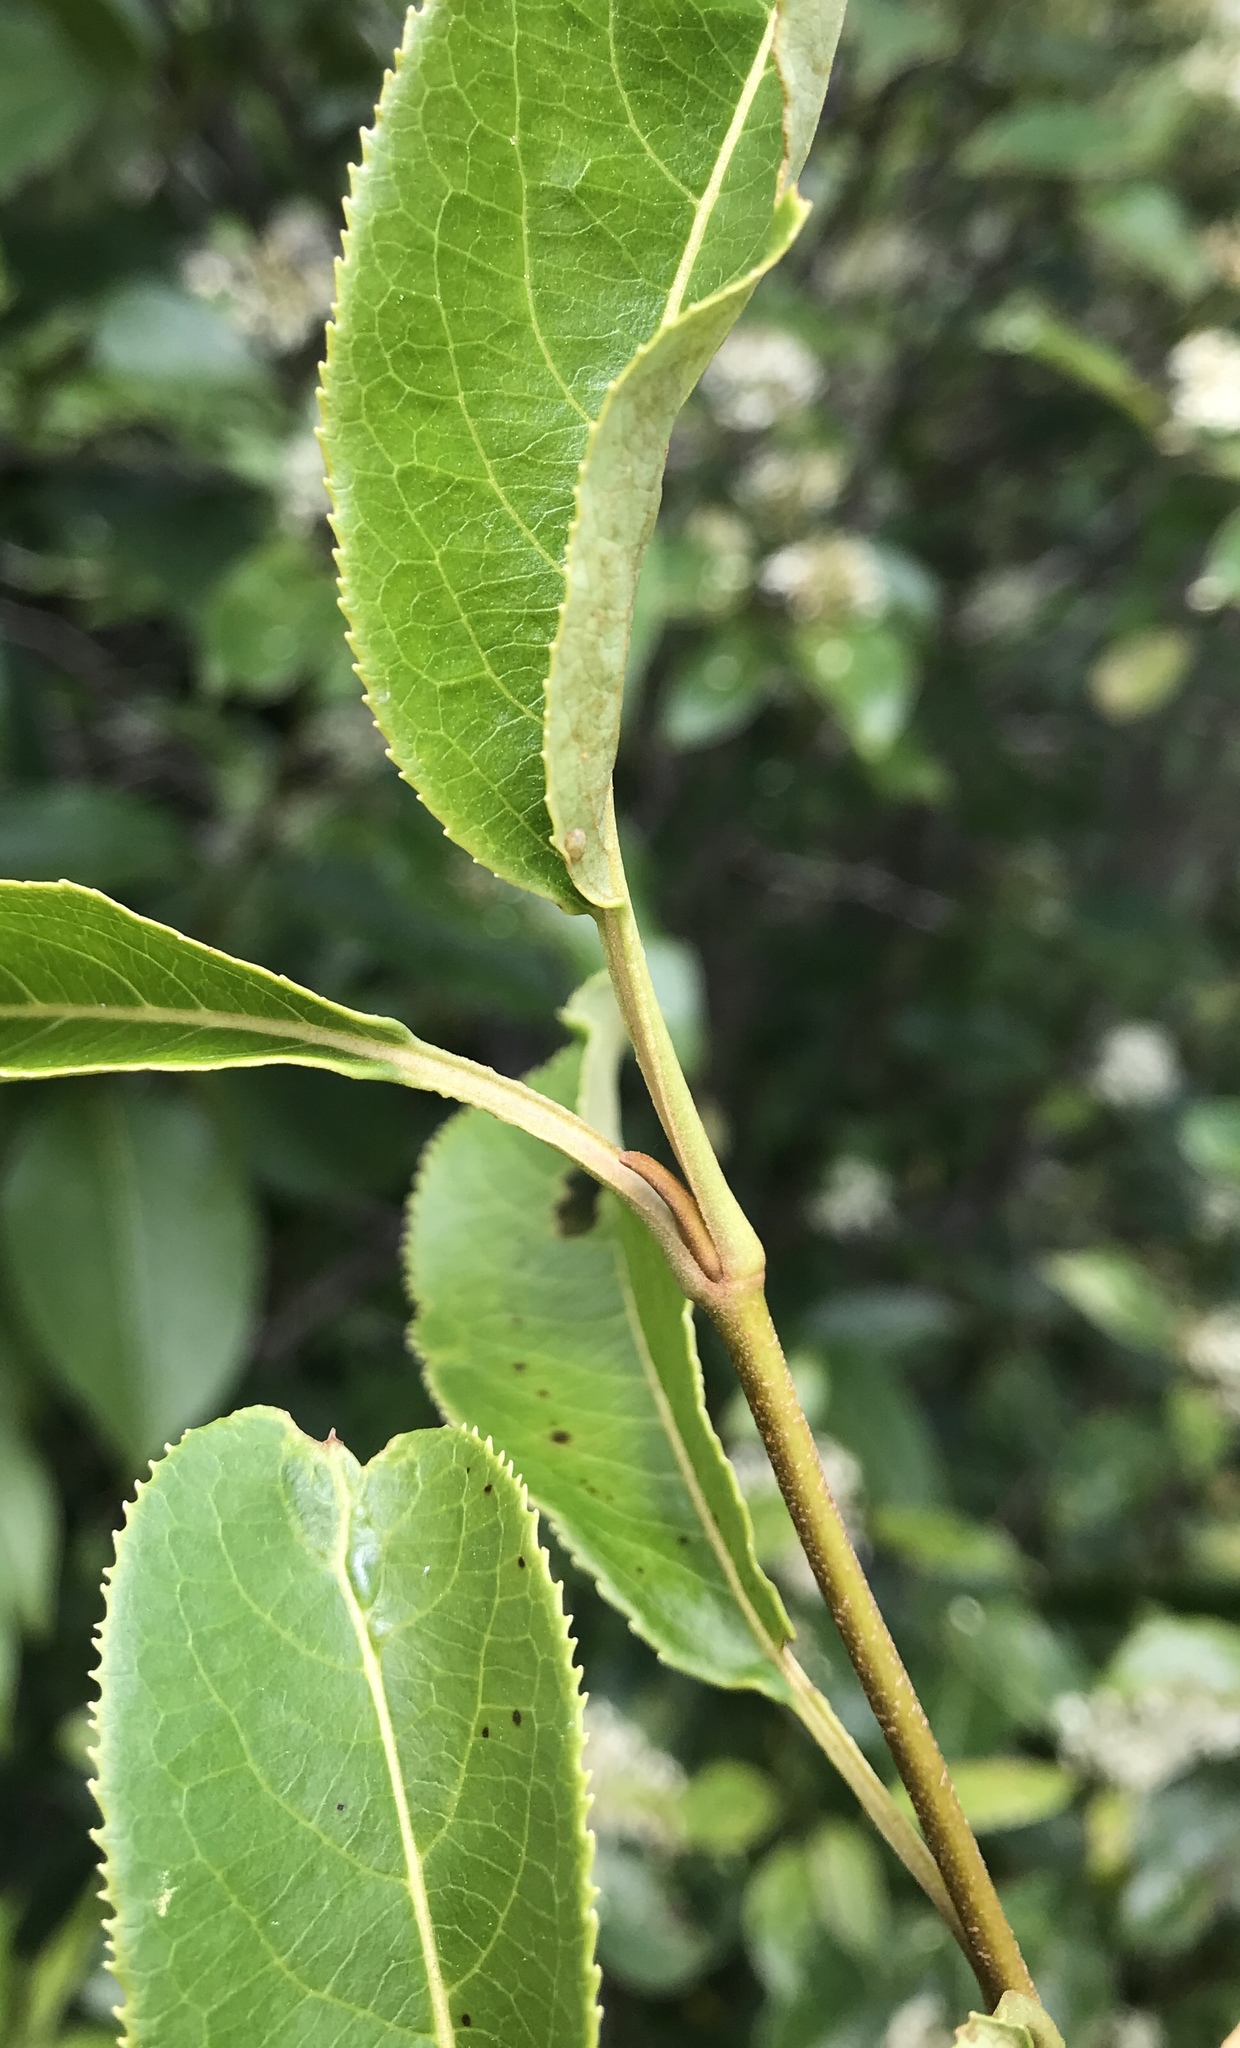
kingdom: Plantae
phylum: Tracheophyta
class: Magnoliopsida
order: Dipsacales
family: Viburnaceae
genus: Viburnum
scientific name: Viburnum lentago
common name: Black haw
